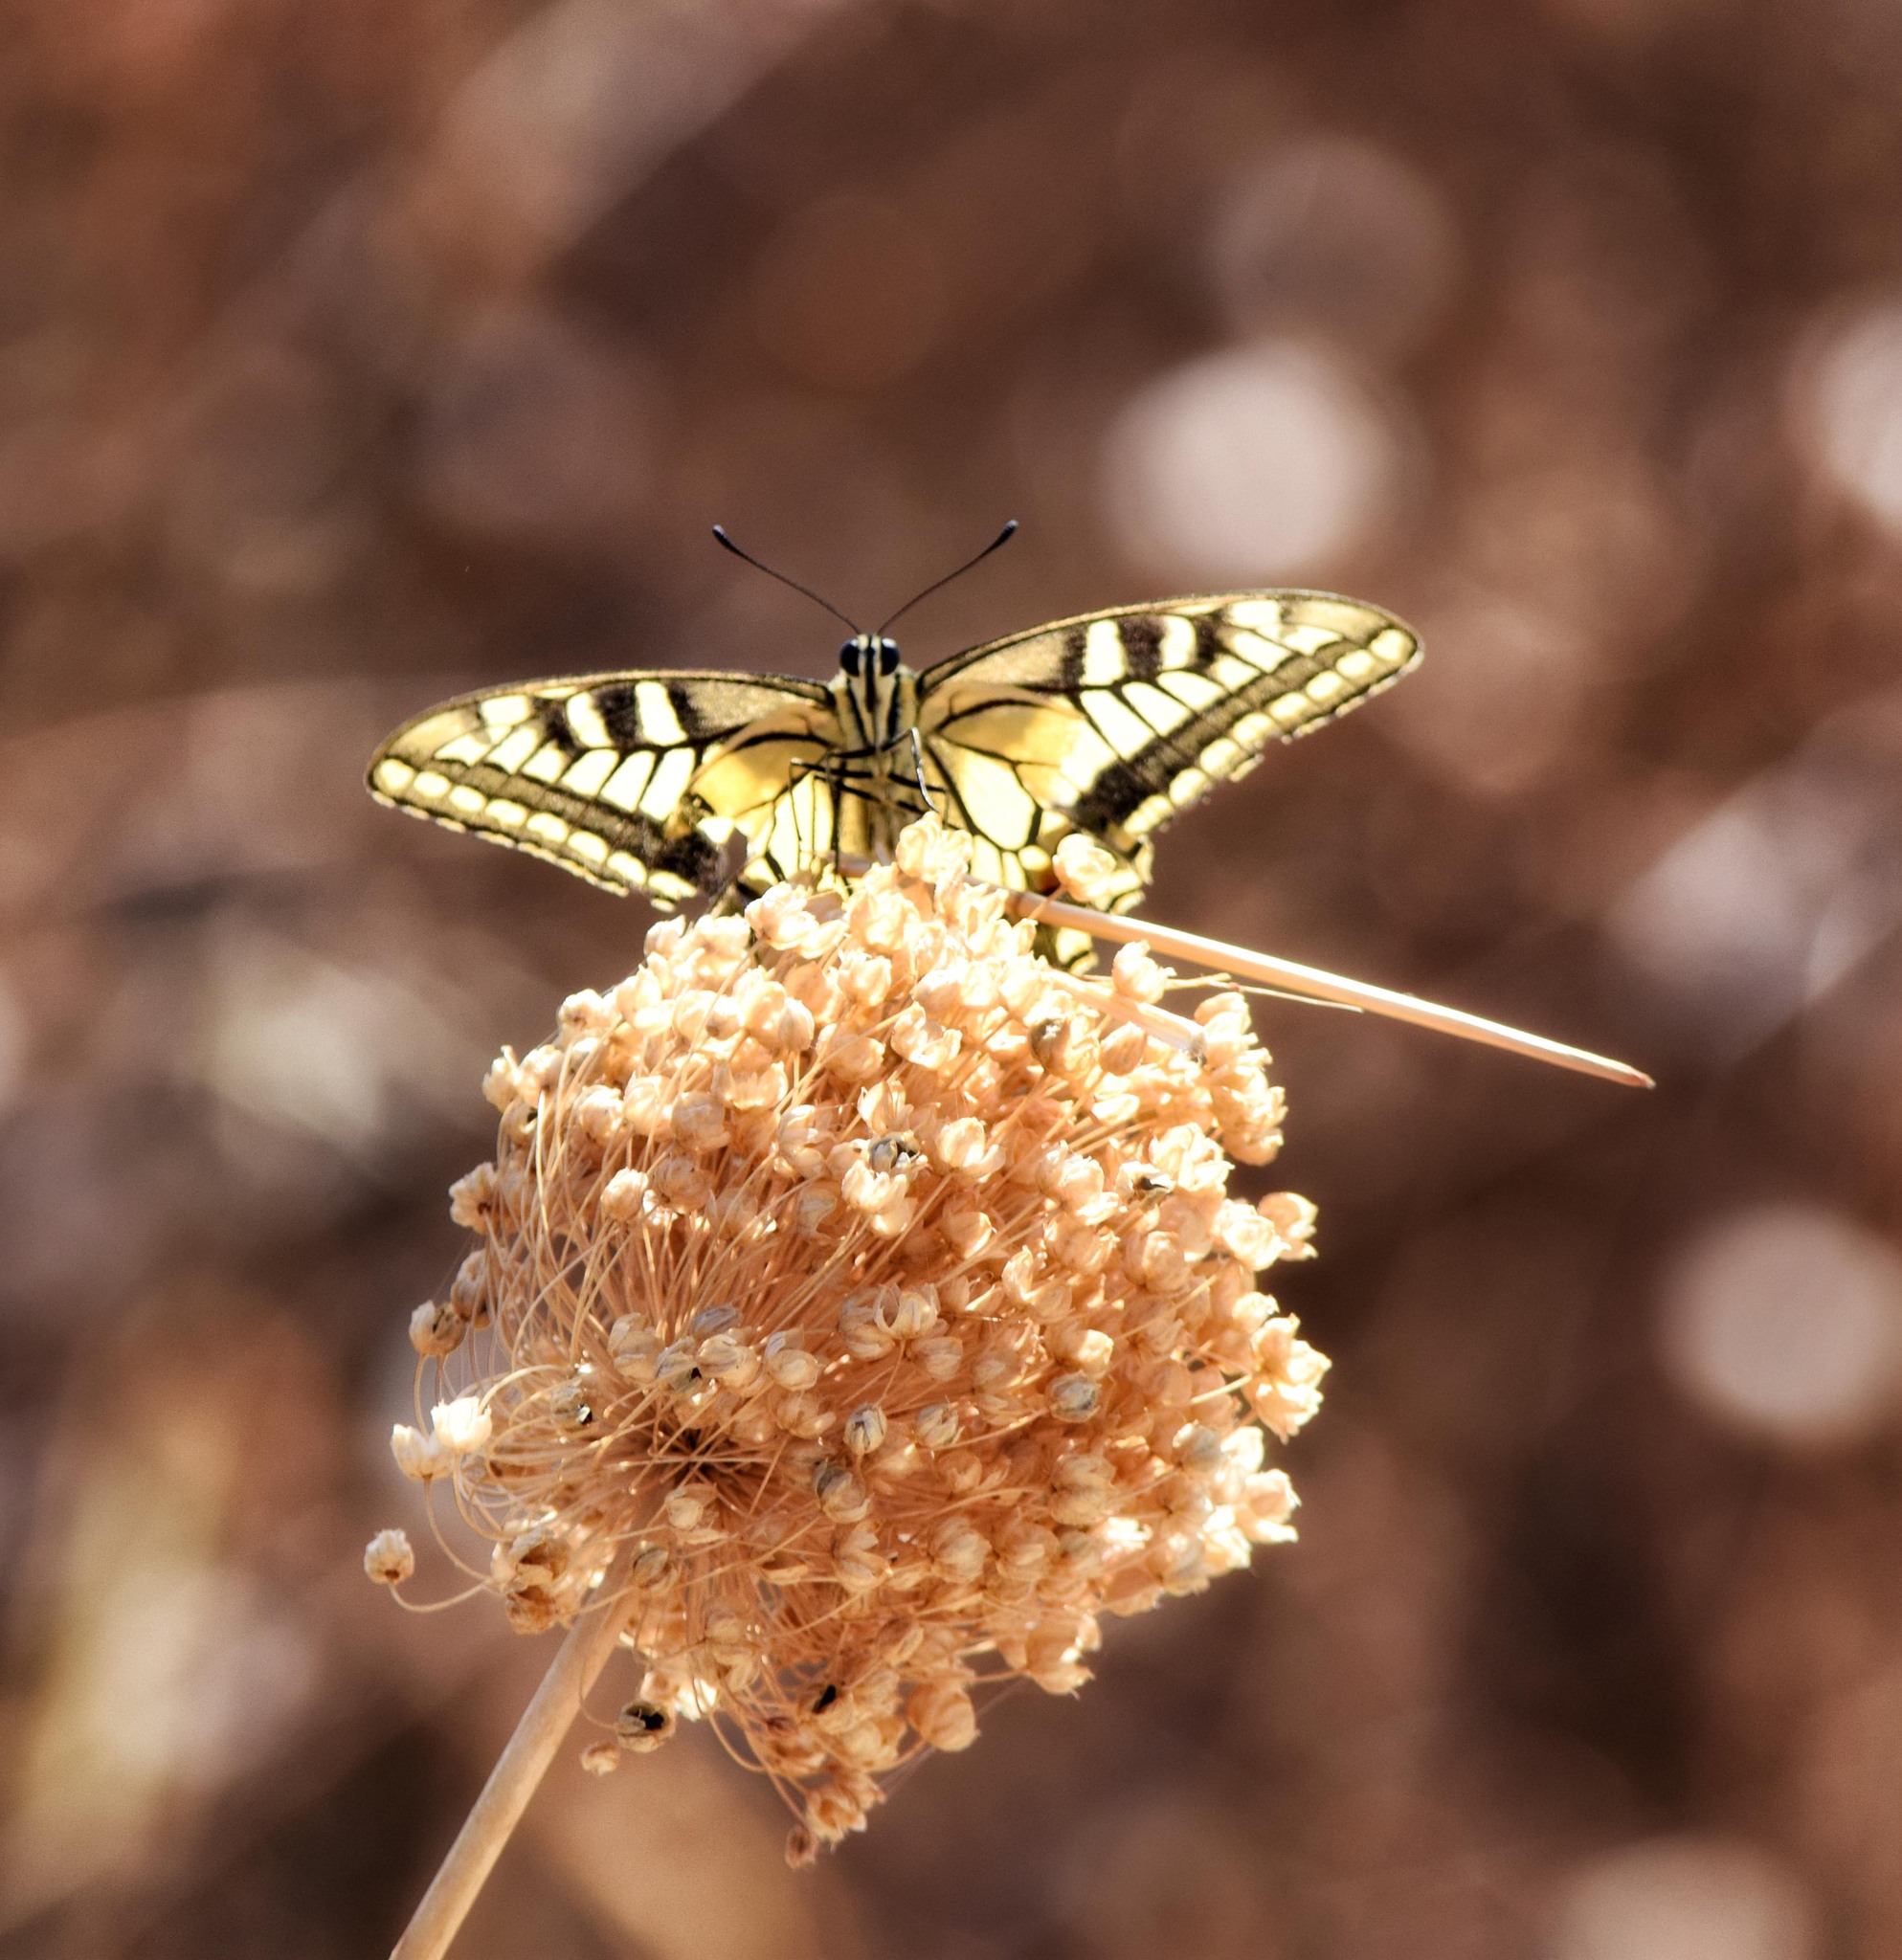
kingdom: Animalia
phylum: Arthropoda
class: Insecta
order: Lepidoptera
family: Papilionidae
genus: Papilio
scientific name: Papilio machaon
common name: Swallowtail
